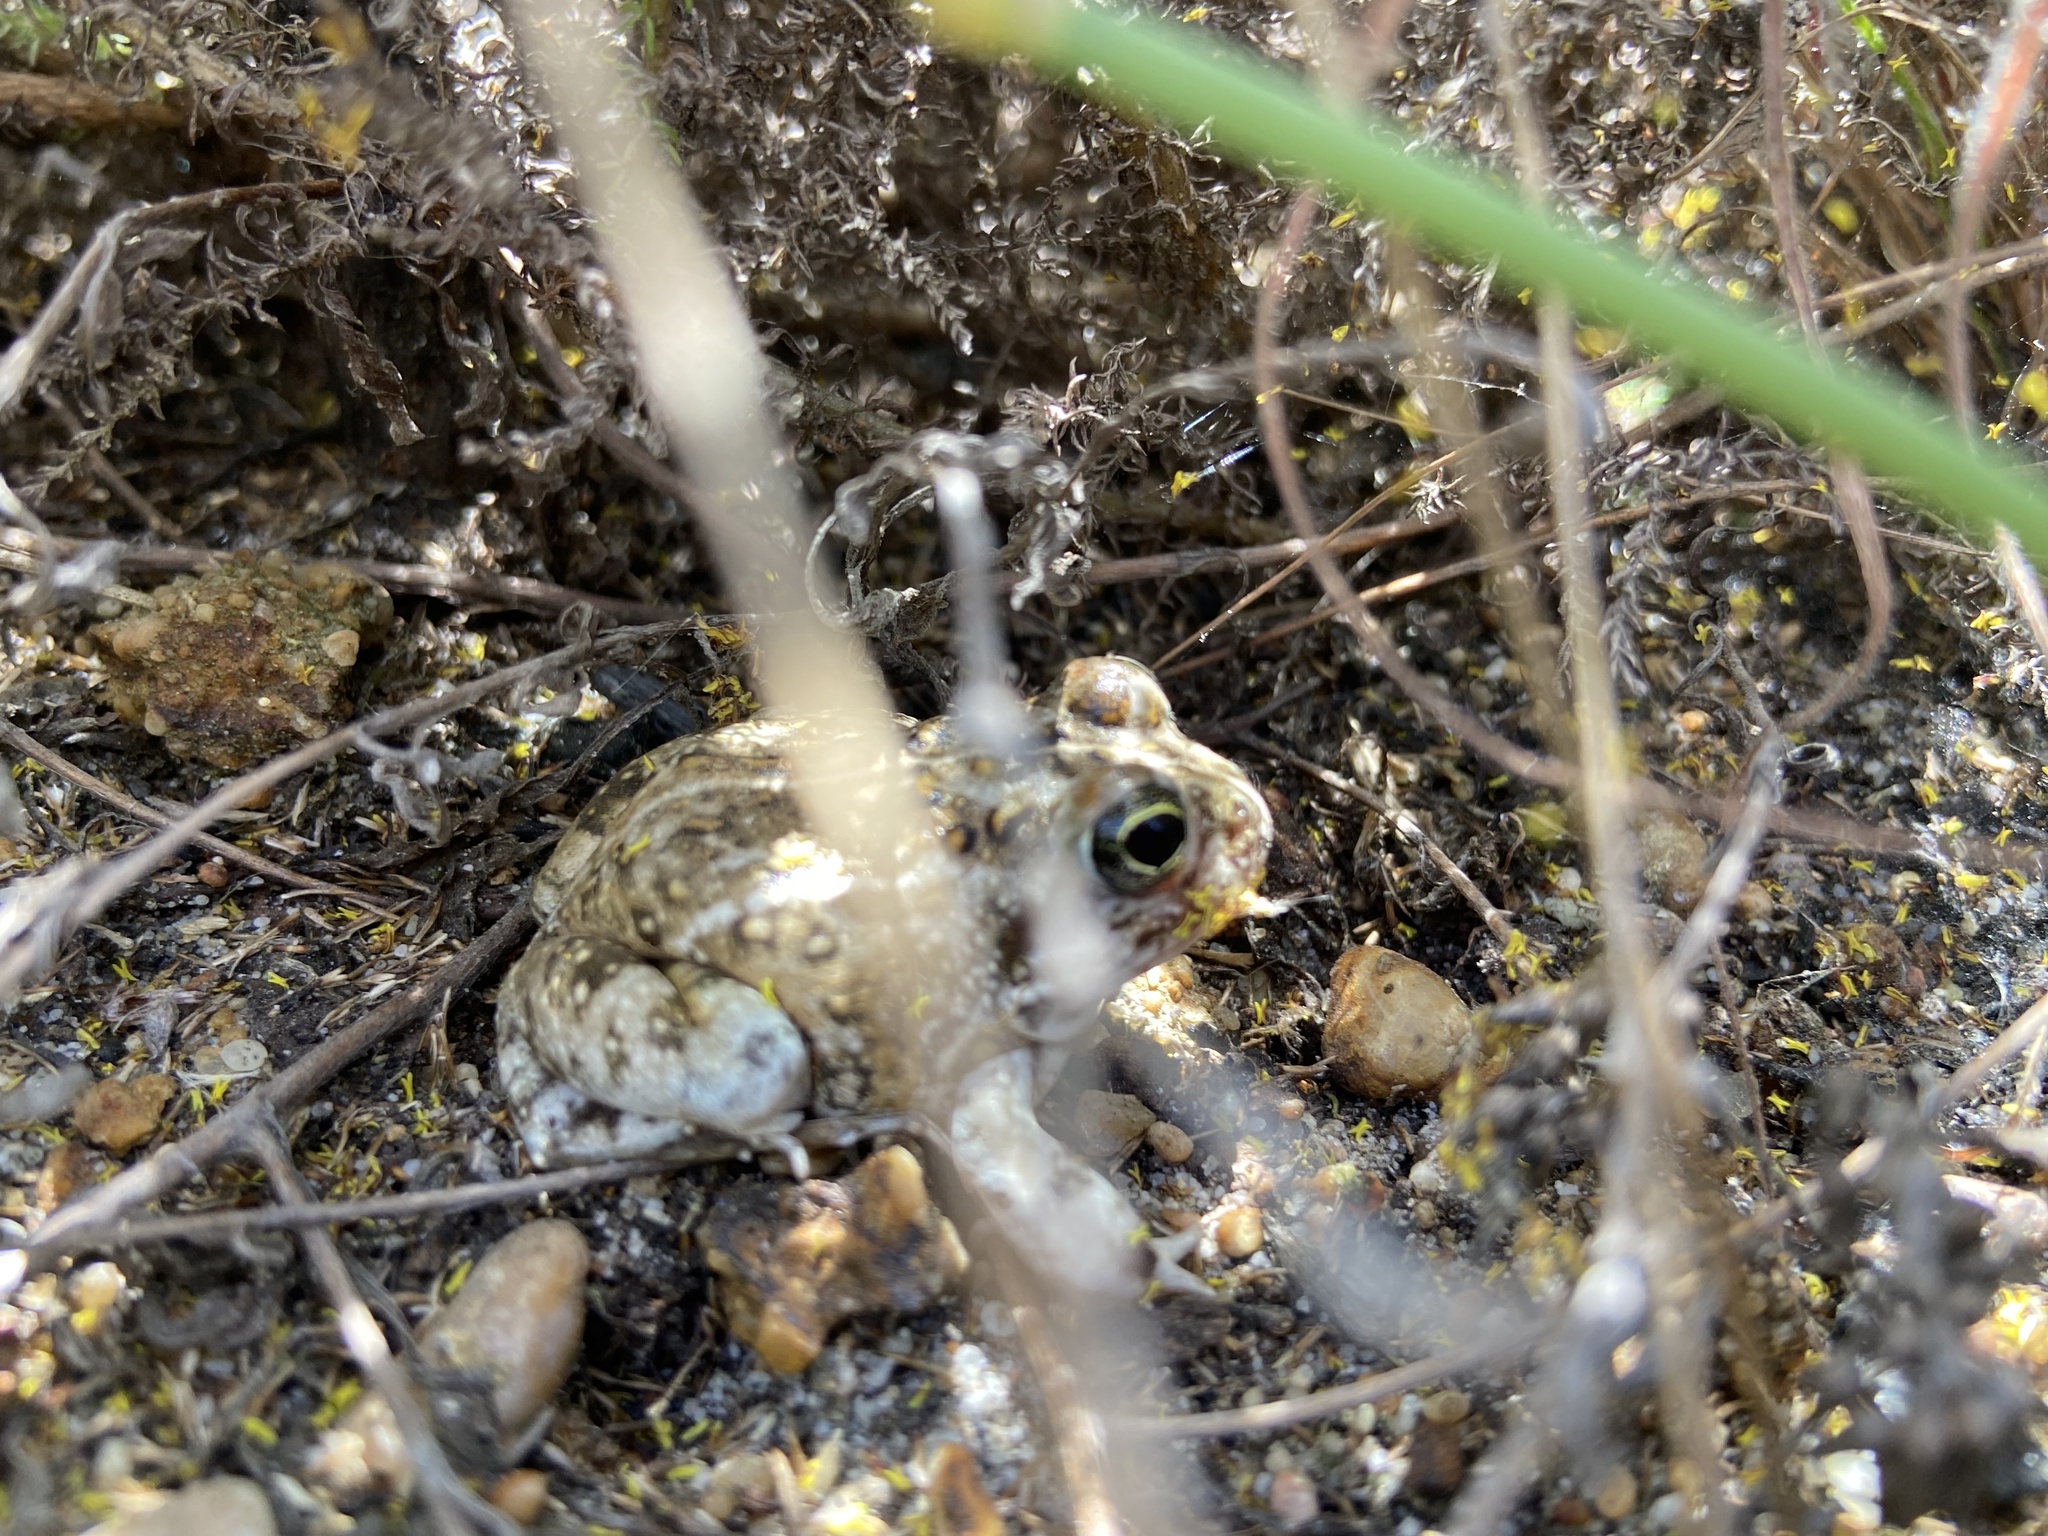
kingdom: Animalia
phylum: Chordata
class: Amphibia
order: Anura
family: Pyxicephalidae
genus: Tomopterna
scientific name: Tomopterna delalandii
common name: Delalande's burrowing bullfrog
